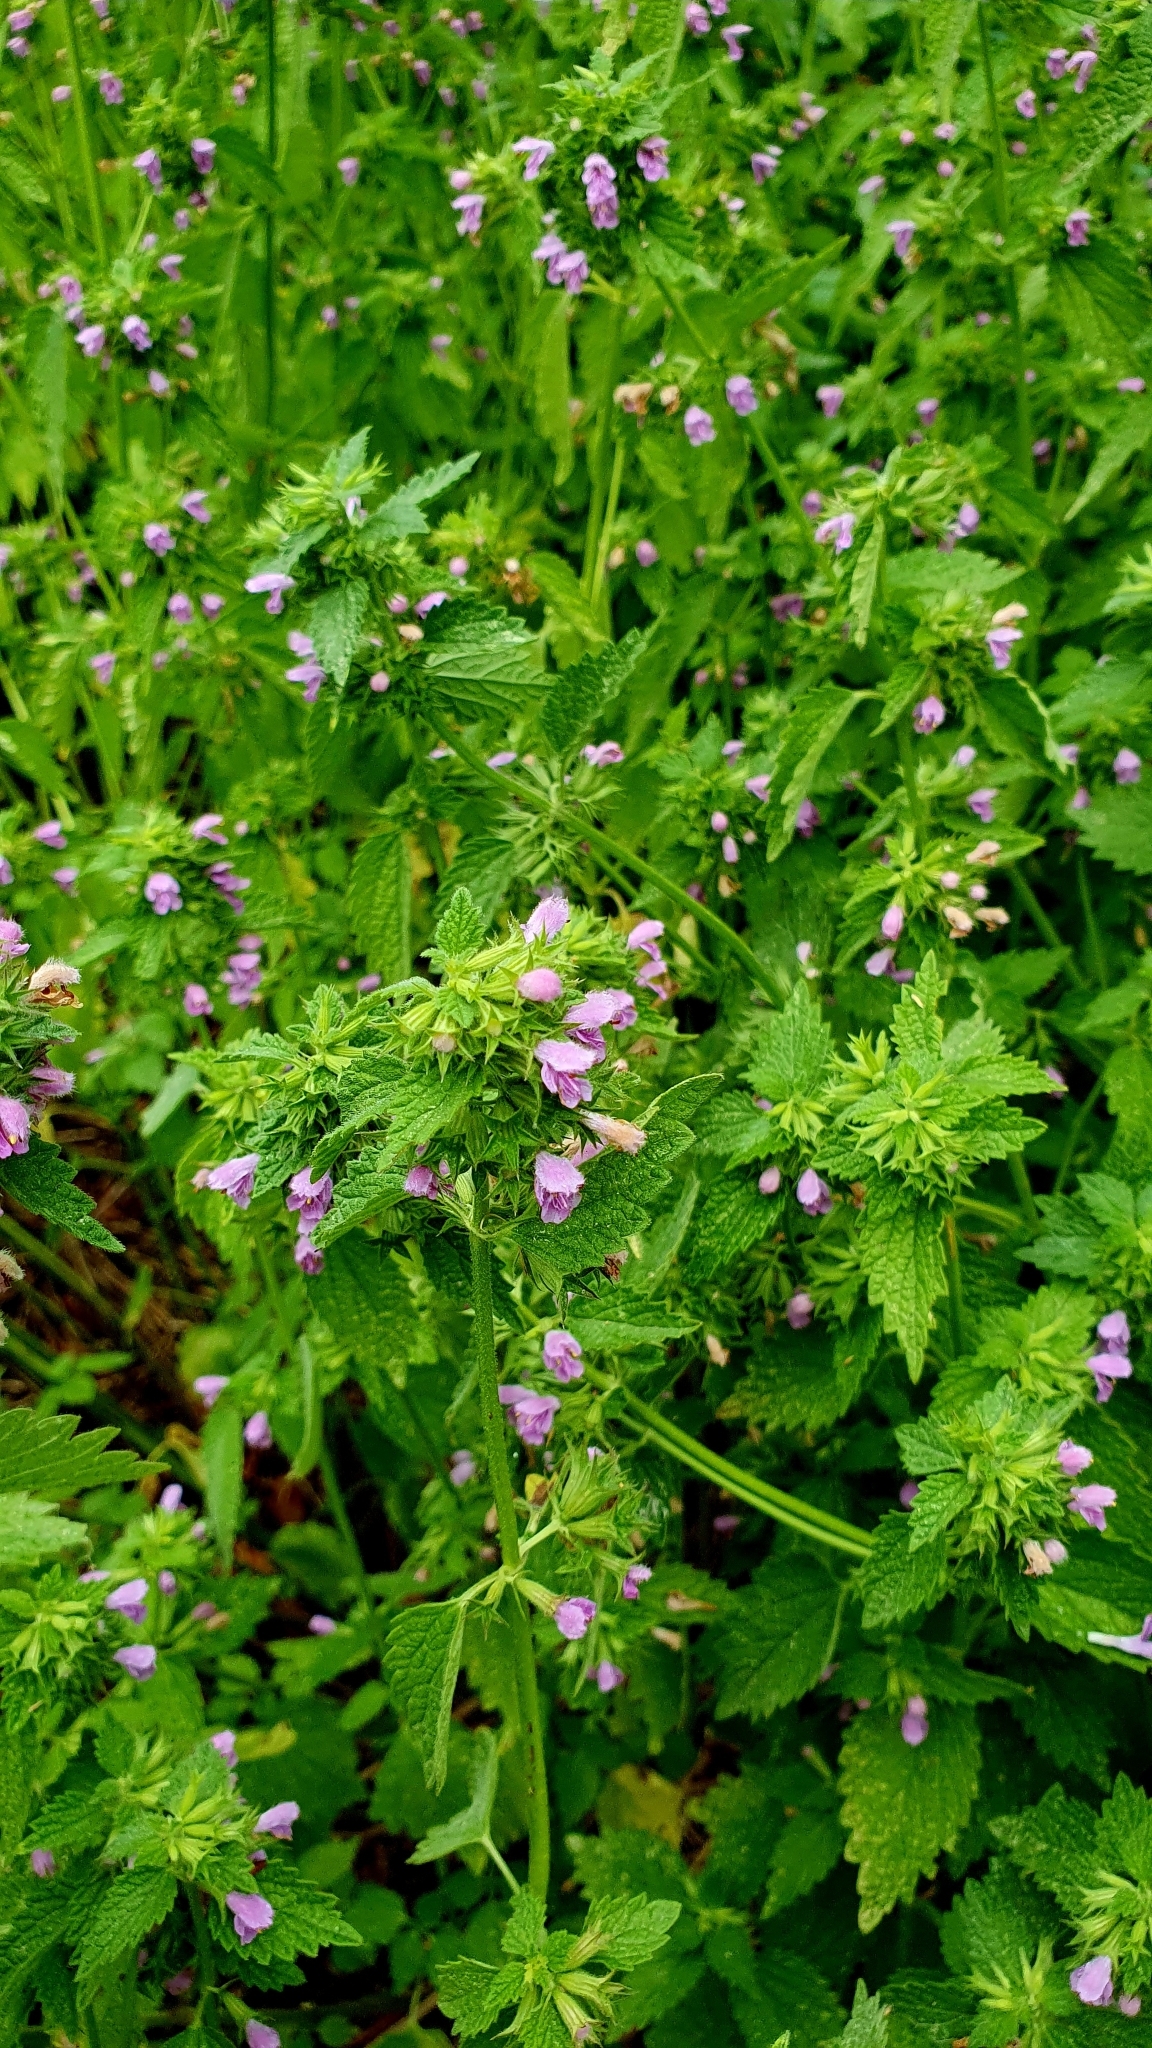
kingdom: Plantae
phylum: Tracheophyta
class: Magnoliopsida
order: Lamiales
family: Lamiaceae
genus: Ballota
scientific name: Ballota nigra
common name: Black horehound
